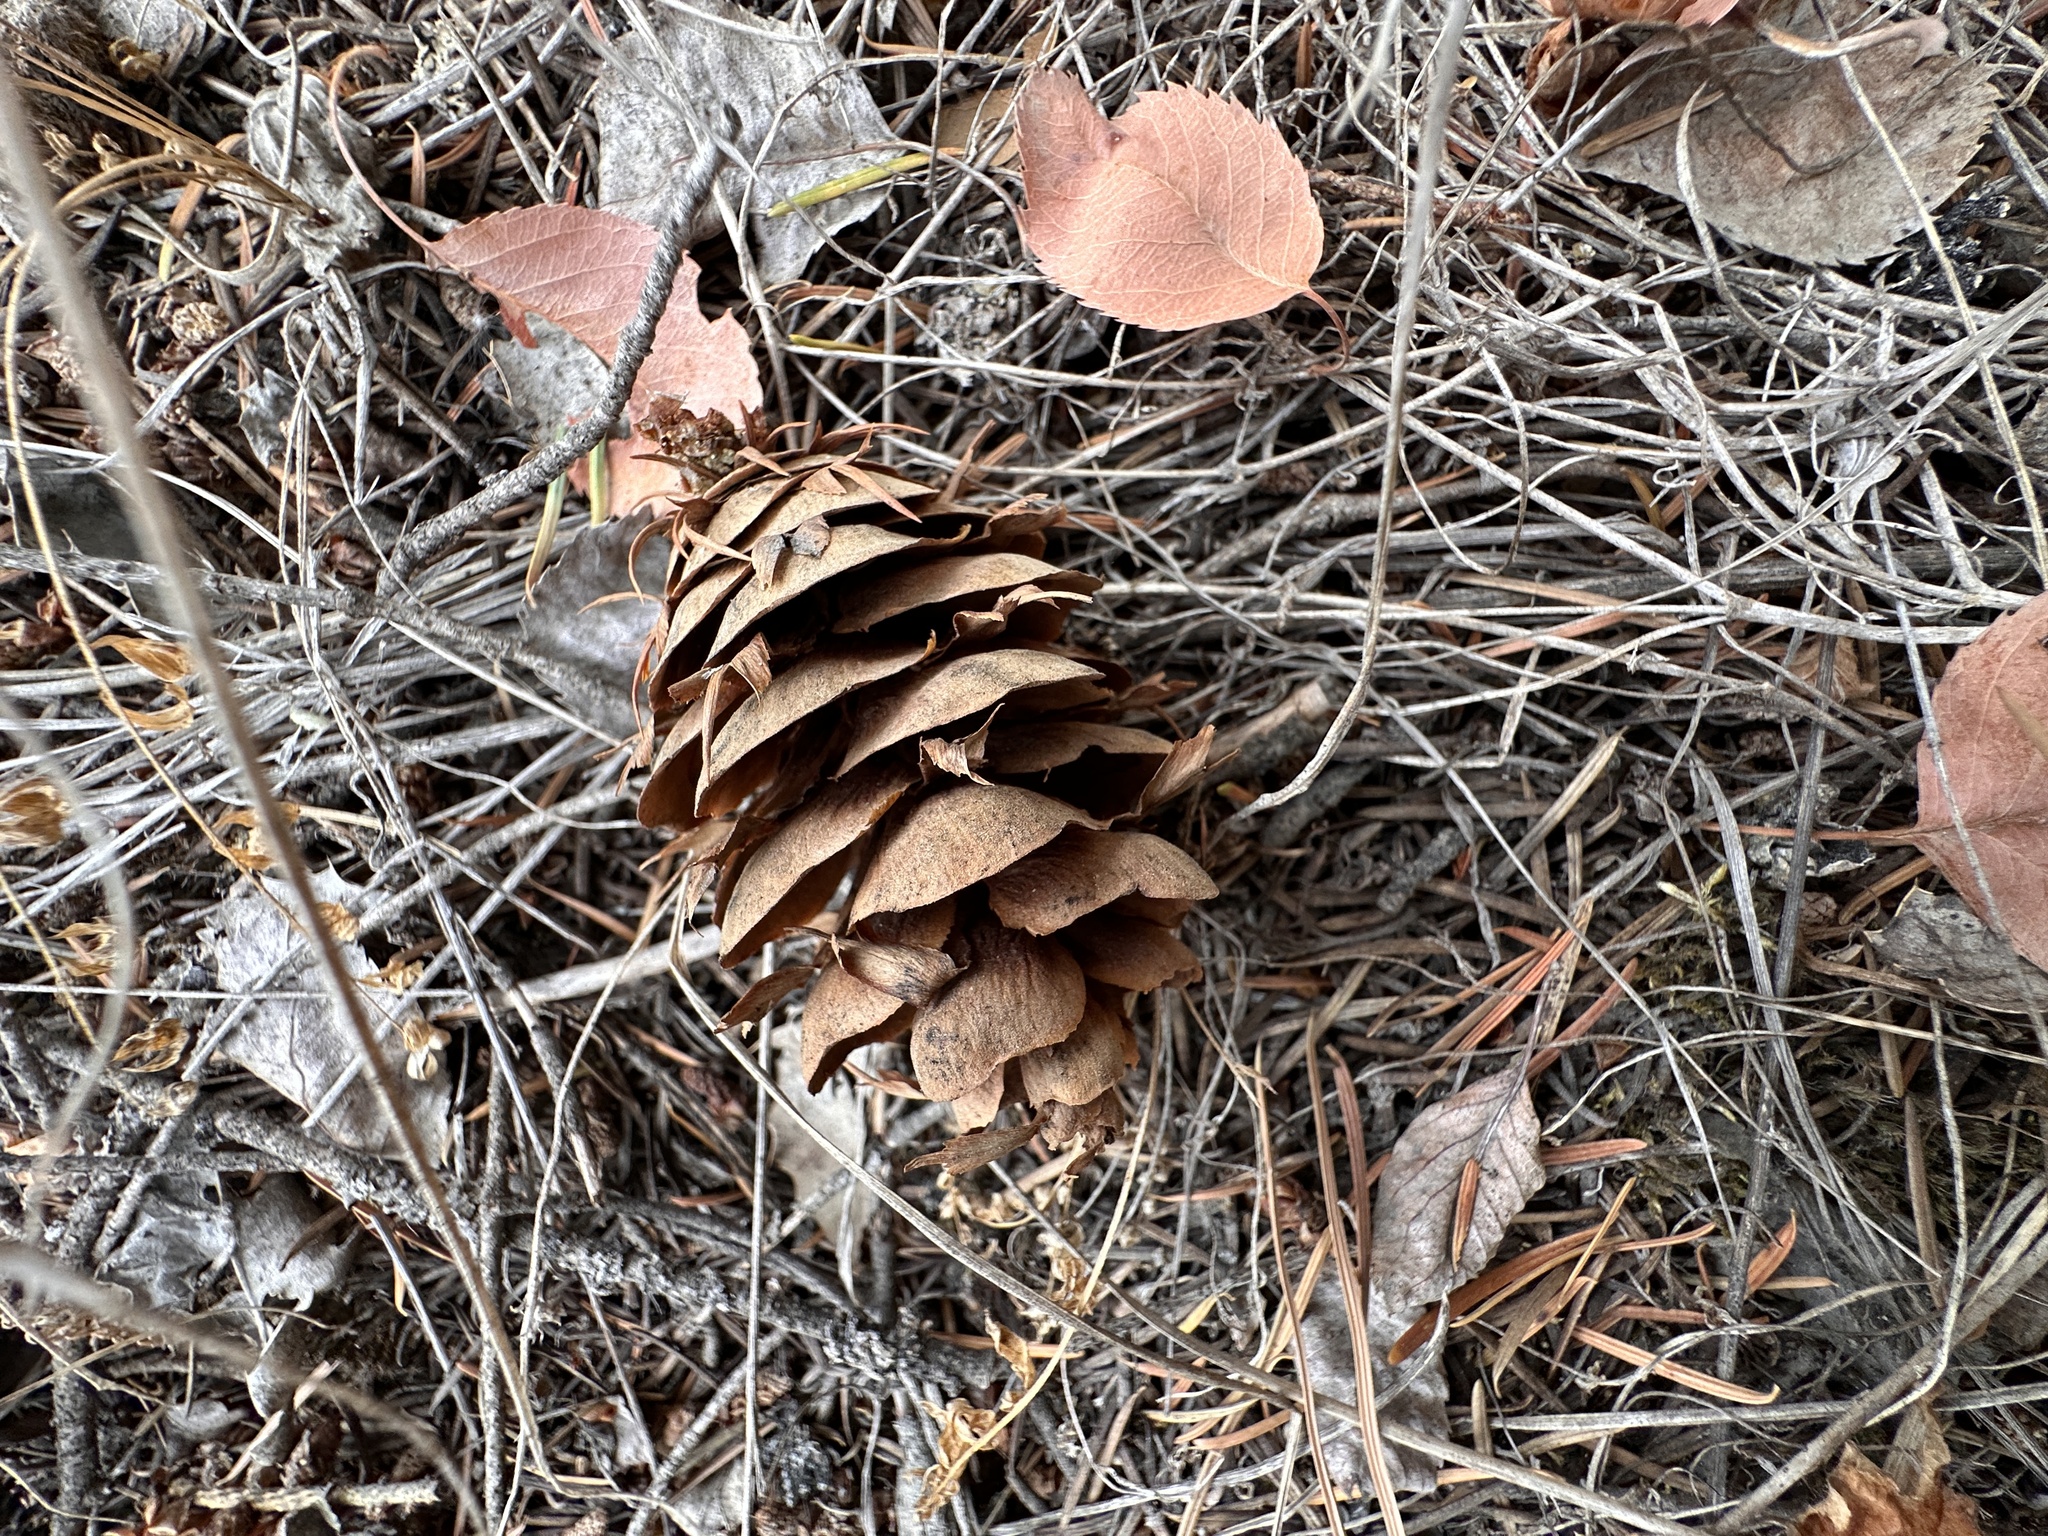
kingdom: Plantae
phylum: Tracheophyta
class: Pinopsida
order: Pinales
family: Pinaceae
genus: Pseudotsuga
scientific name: Pseudotsuga menziesii
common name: Douglas fir
